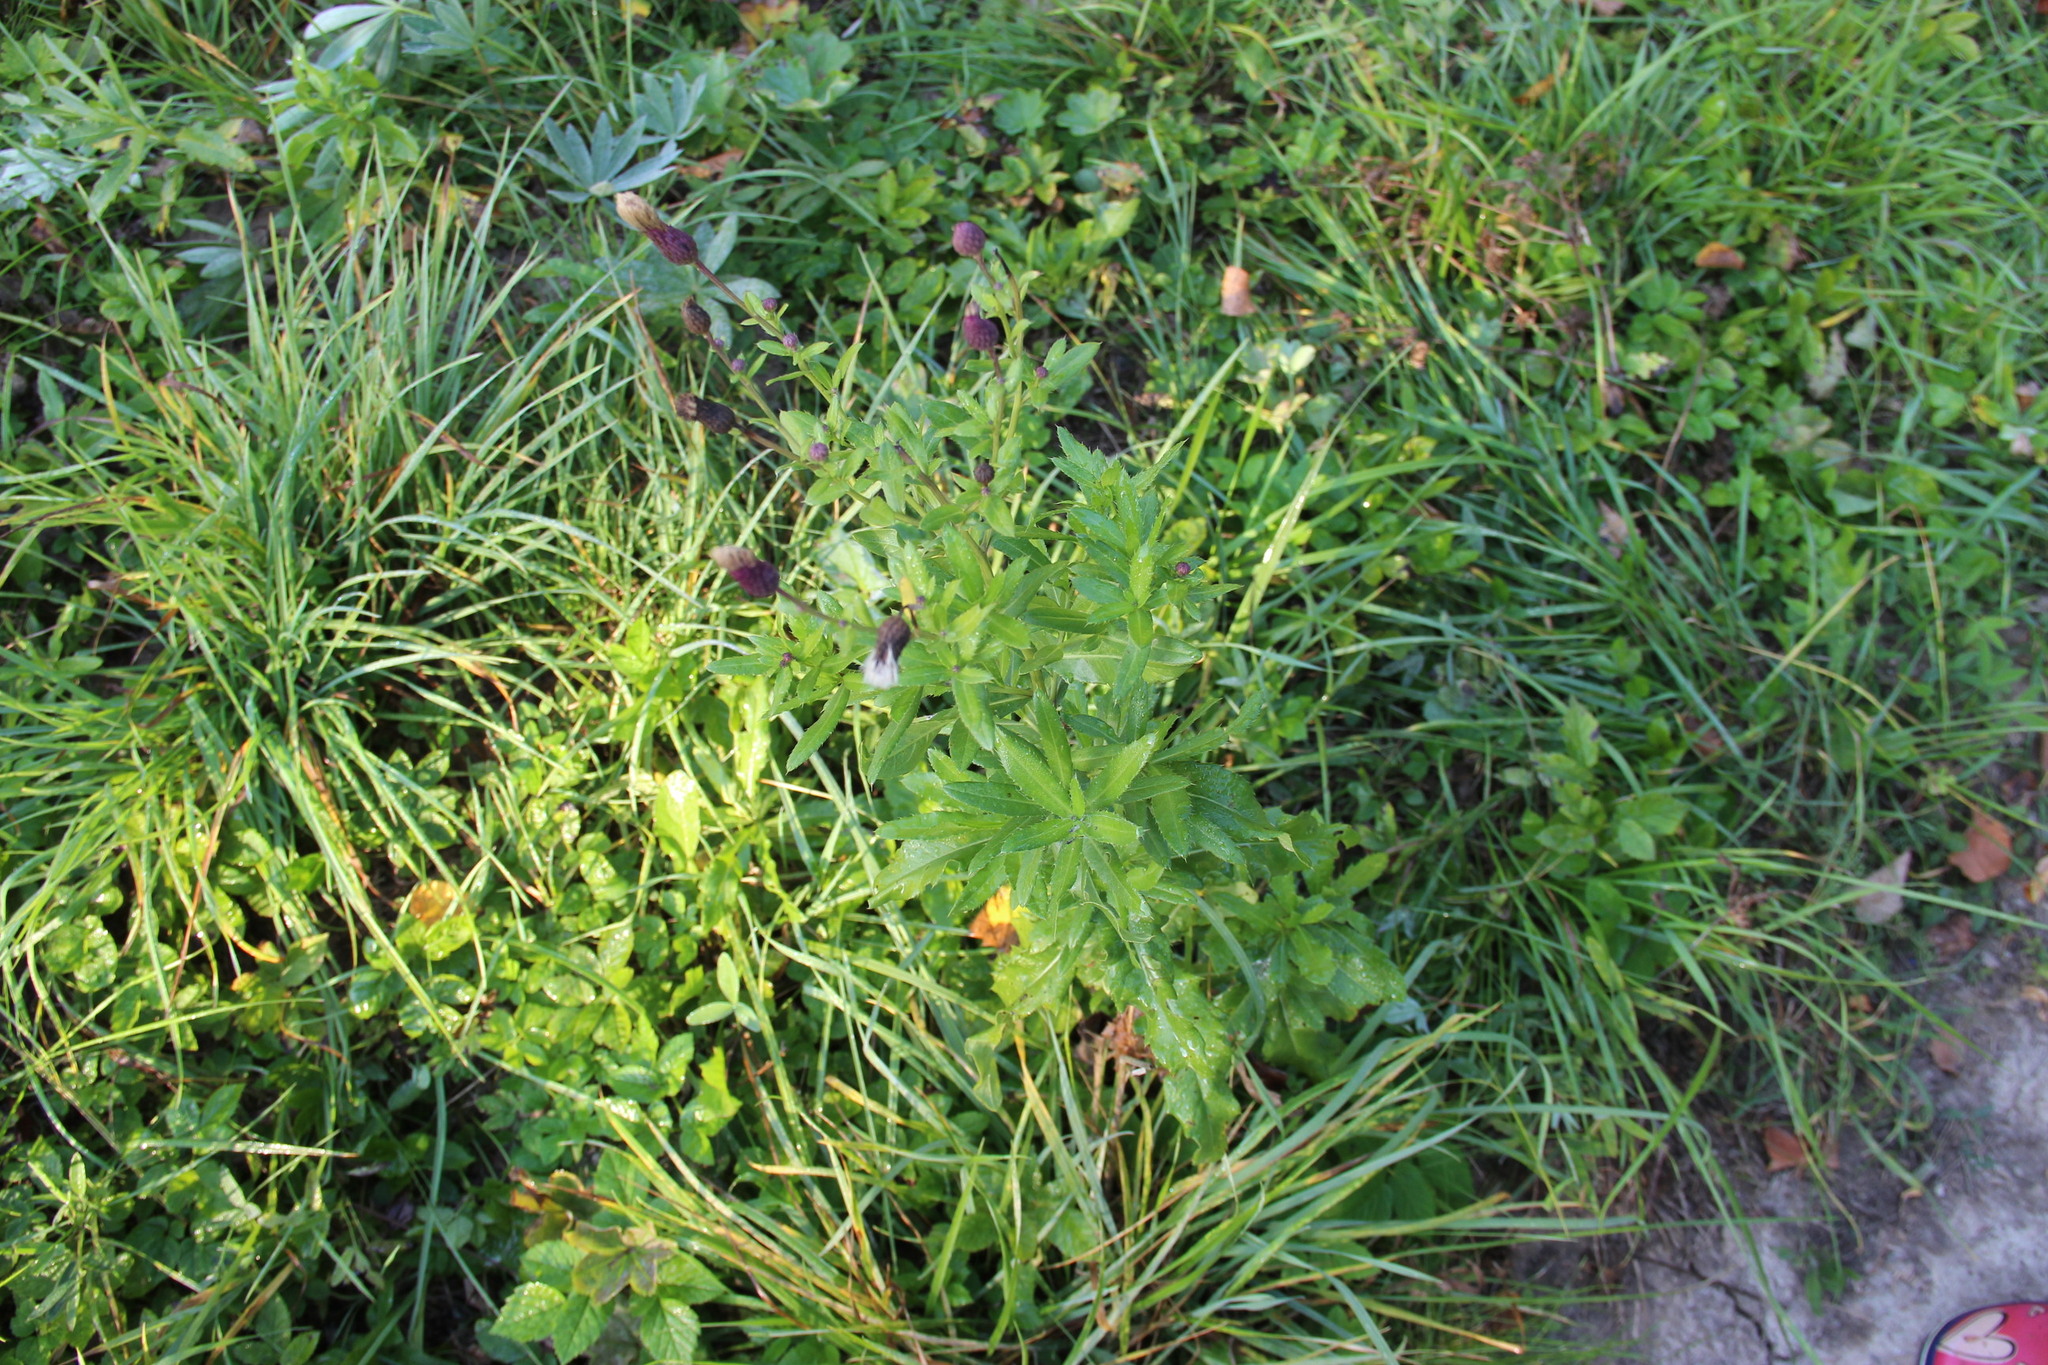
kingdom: Plantae
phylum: Tracheophyta
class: Magnoliopsida
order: Asterales
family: Asteraceae
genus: Cirsium
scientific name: Cirsium arvense
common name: Creeping thistle
